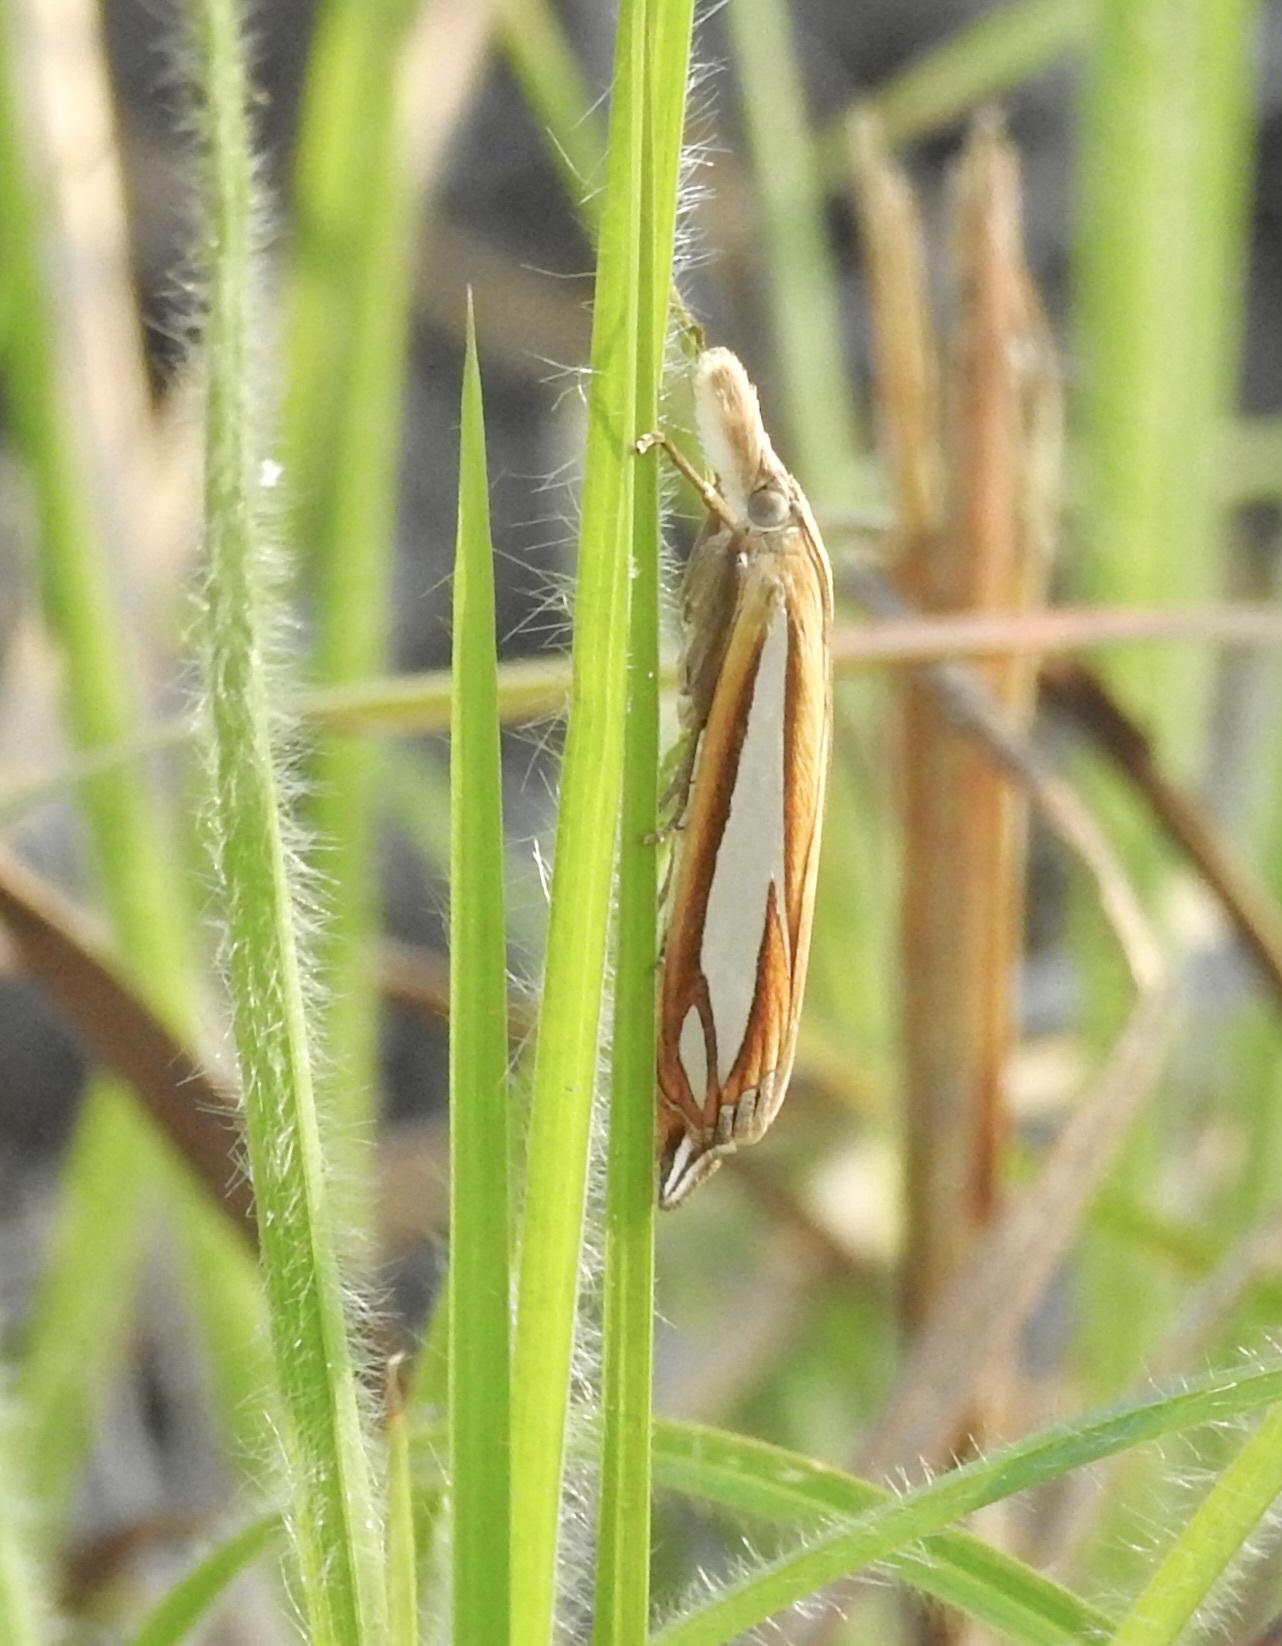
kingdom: Animalia
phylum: Arthropoda
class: Insecta
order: Lepidoptera
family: Crambidae
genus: Crambus
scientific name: Crambus satrapellus
